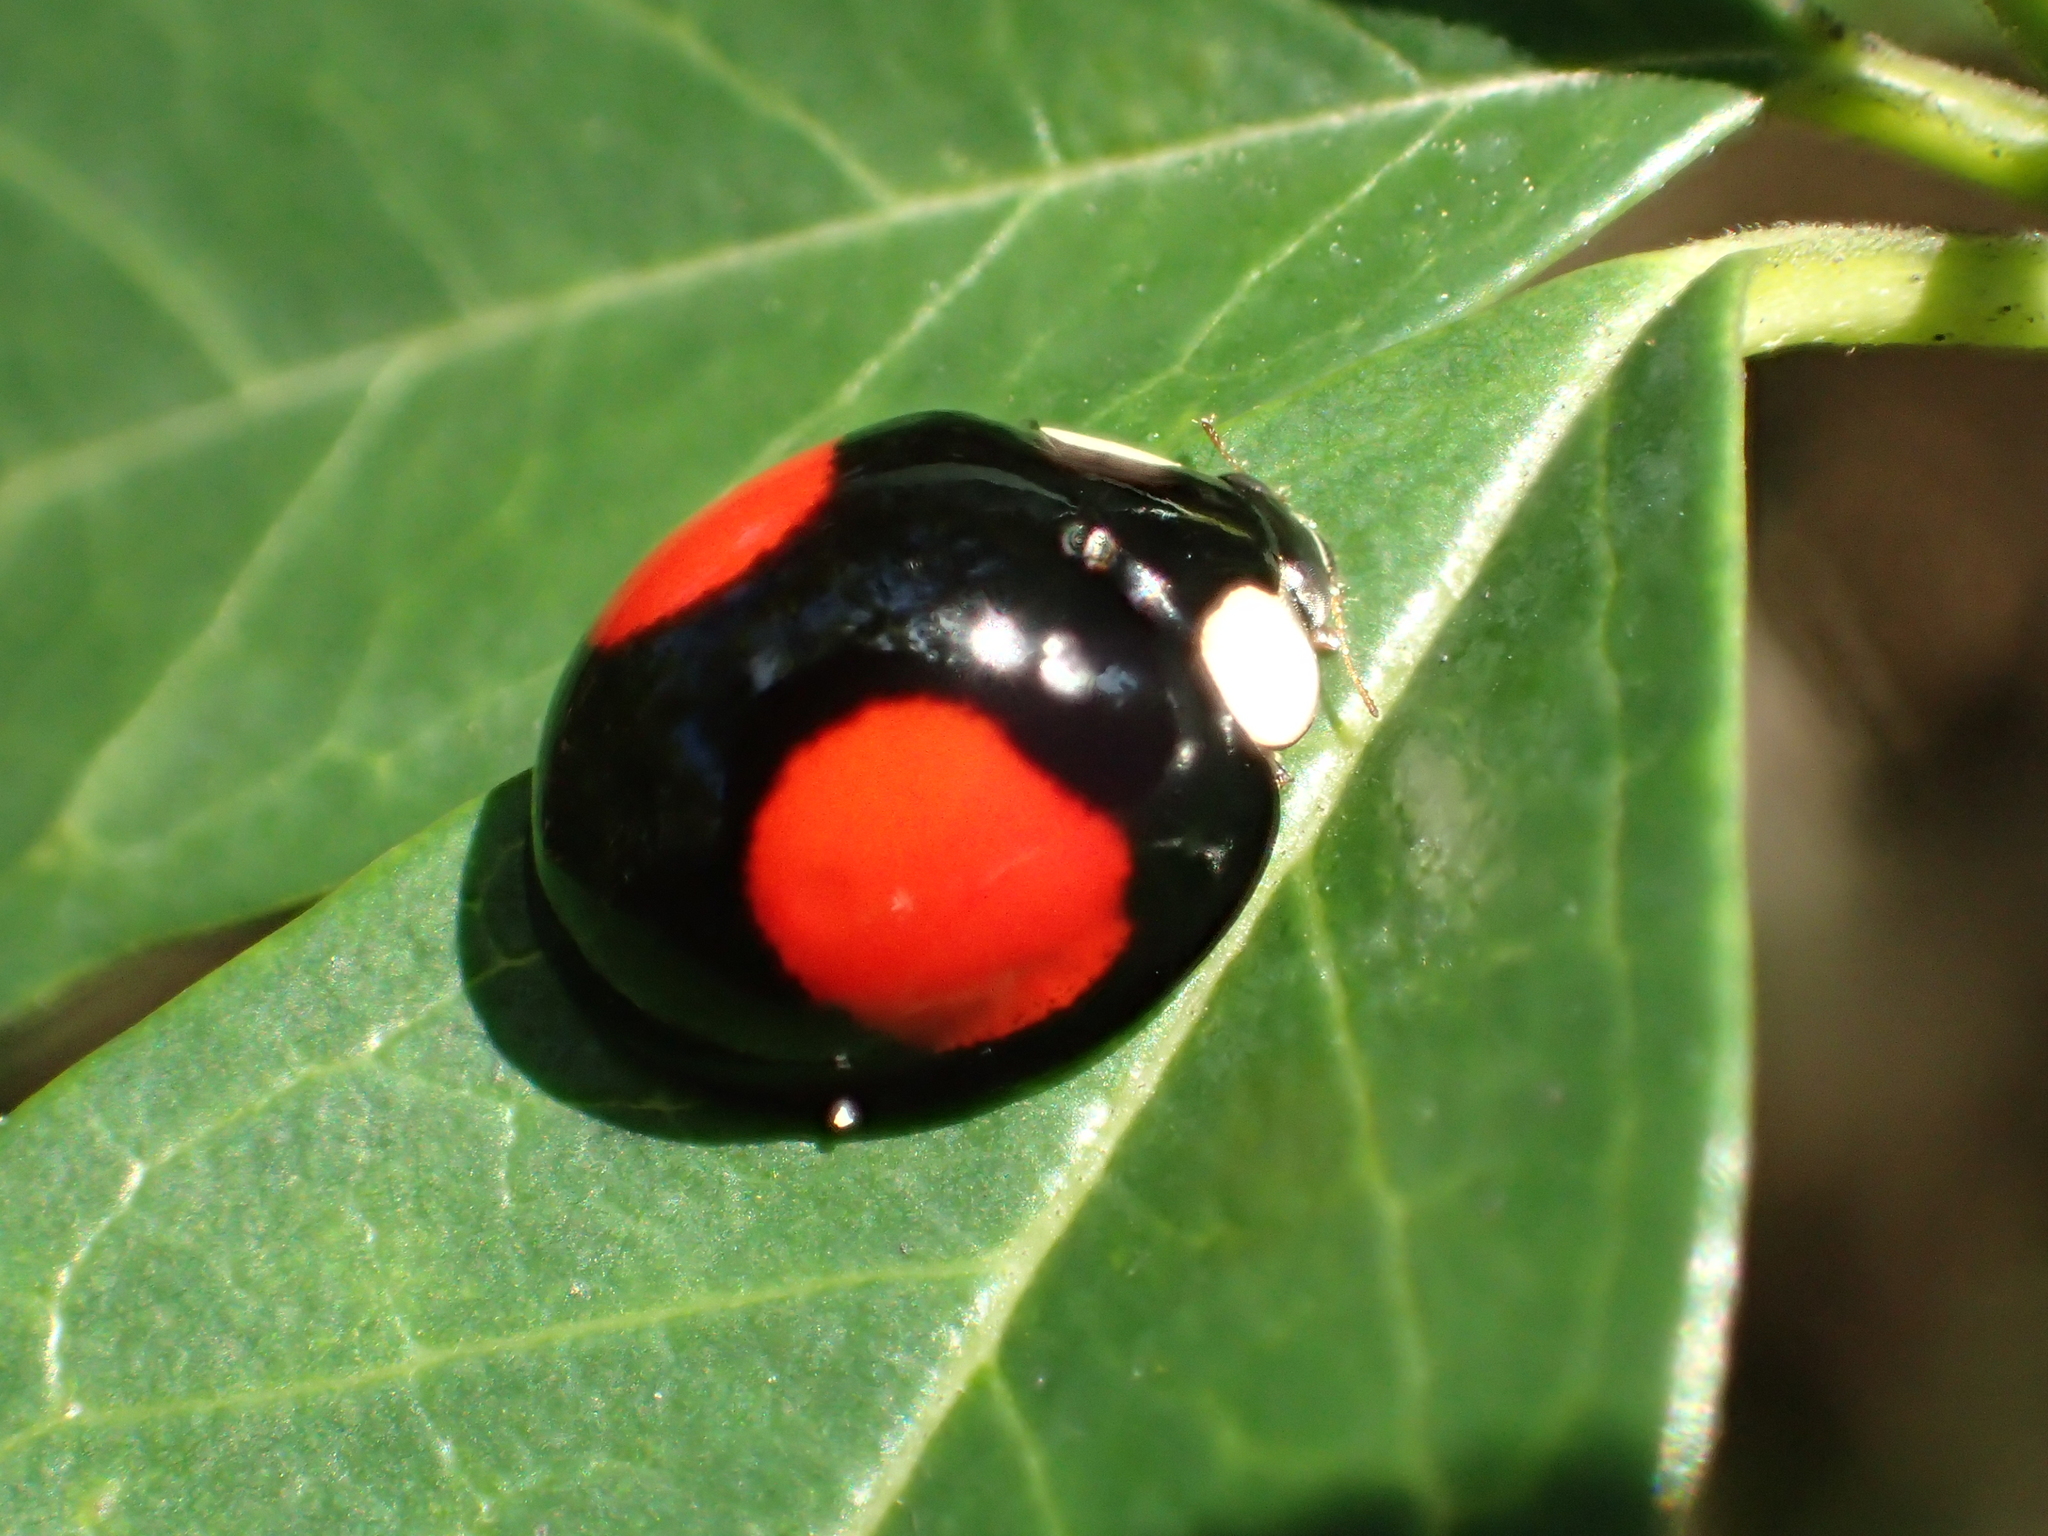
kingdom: Animalia
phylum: Arthropoda
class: Insecta
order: Coleoptera
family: Coccinellidae
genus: Coelophora
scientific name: Coelophora saucia
